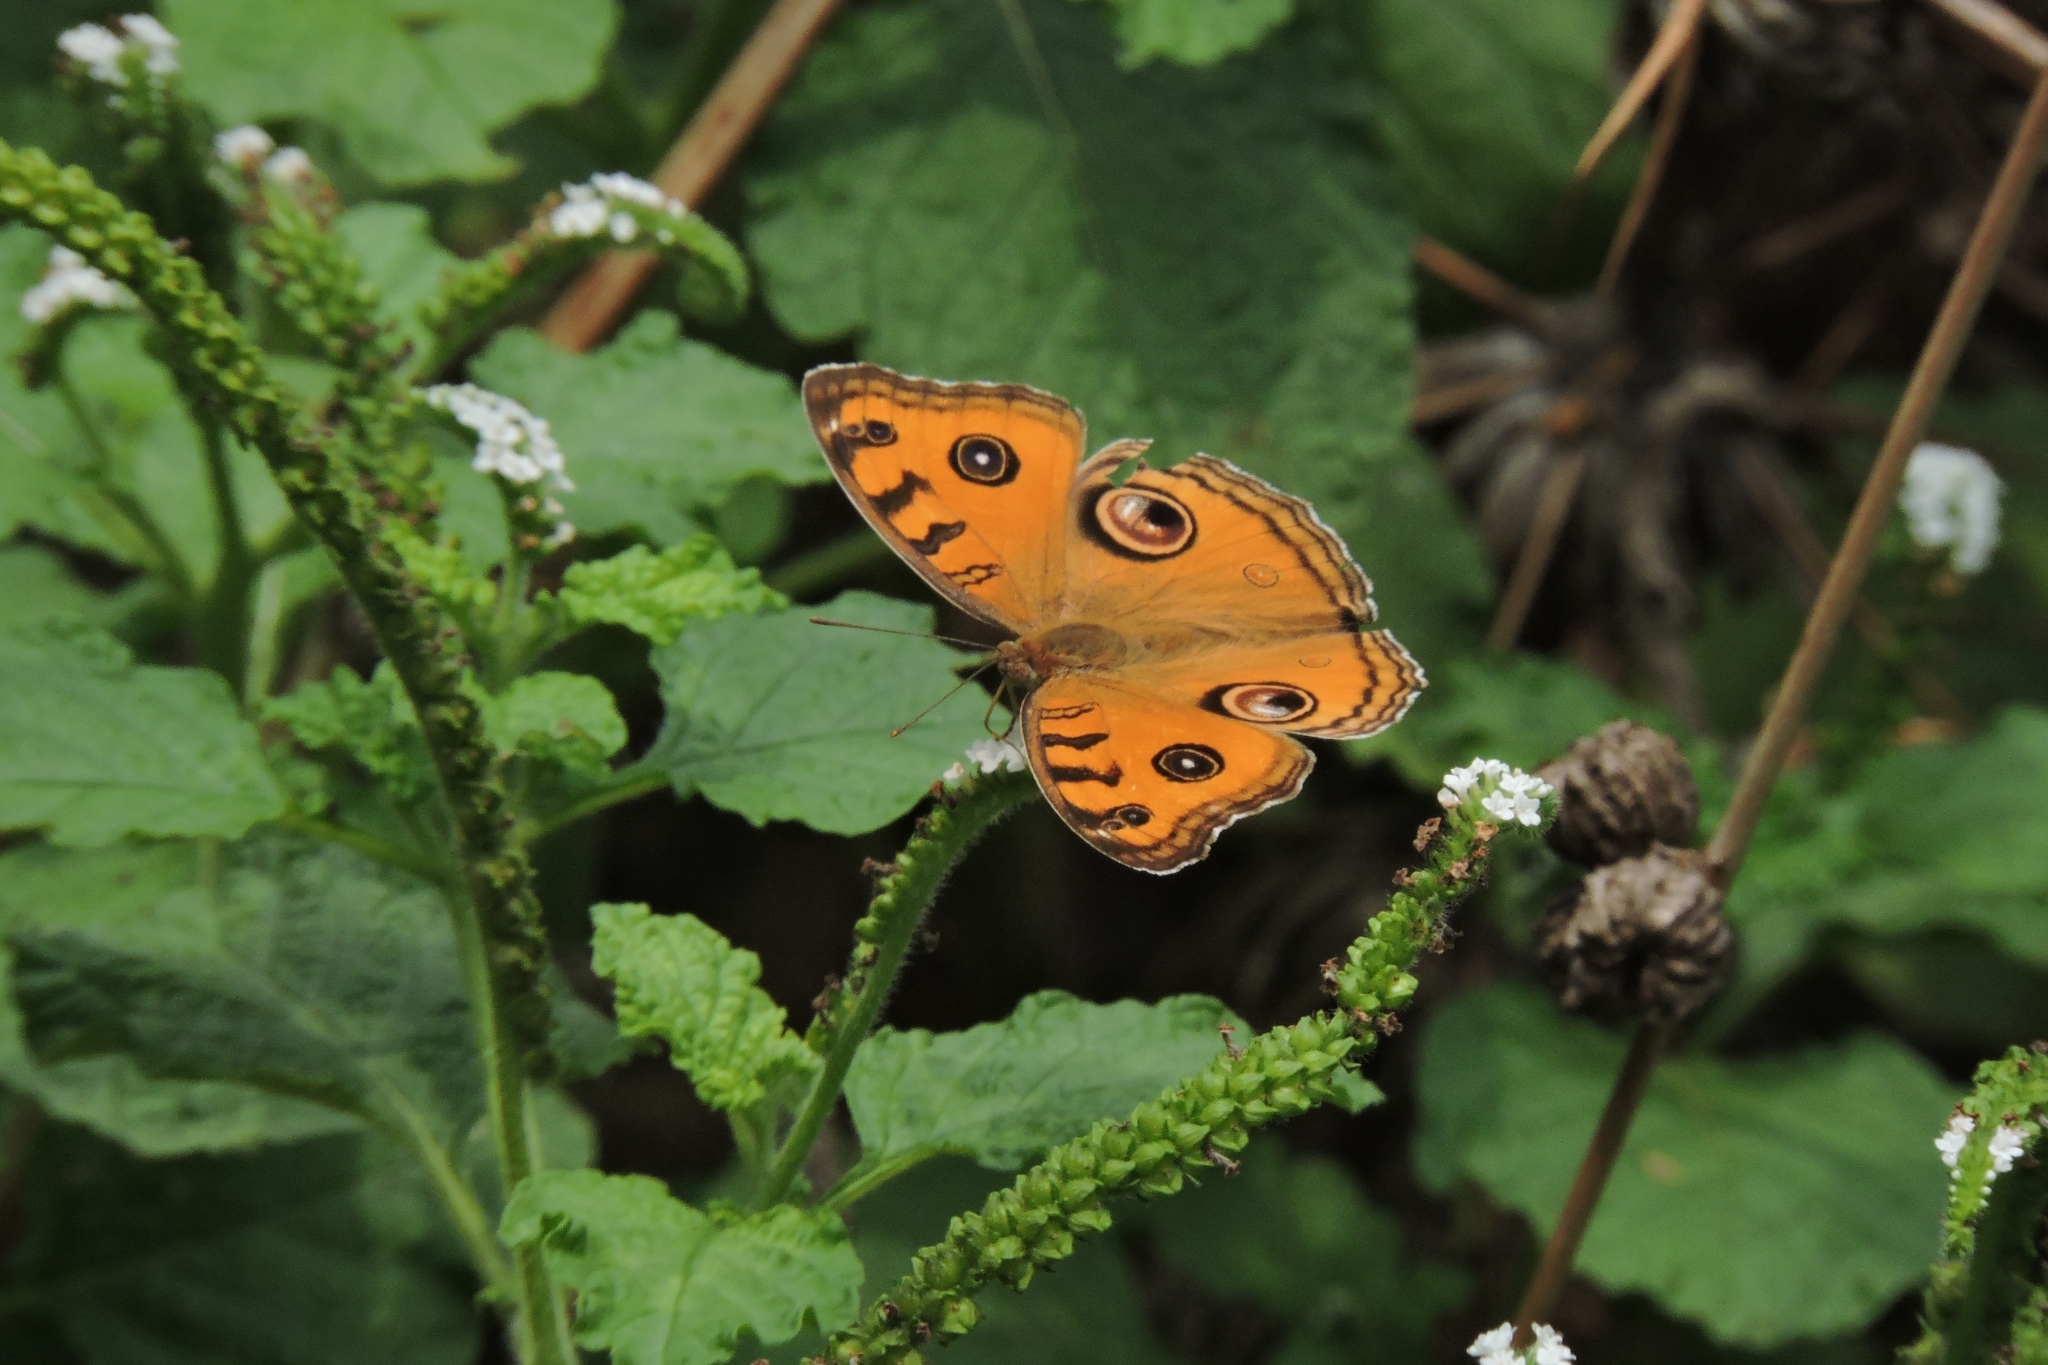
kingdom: Animalia
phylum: Arthropoda
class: Insecta
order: Lepidoptera
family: Nymphalidae
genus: Junonia
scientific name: Junonia almana
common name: Peacock pansy
